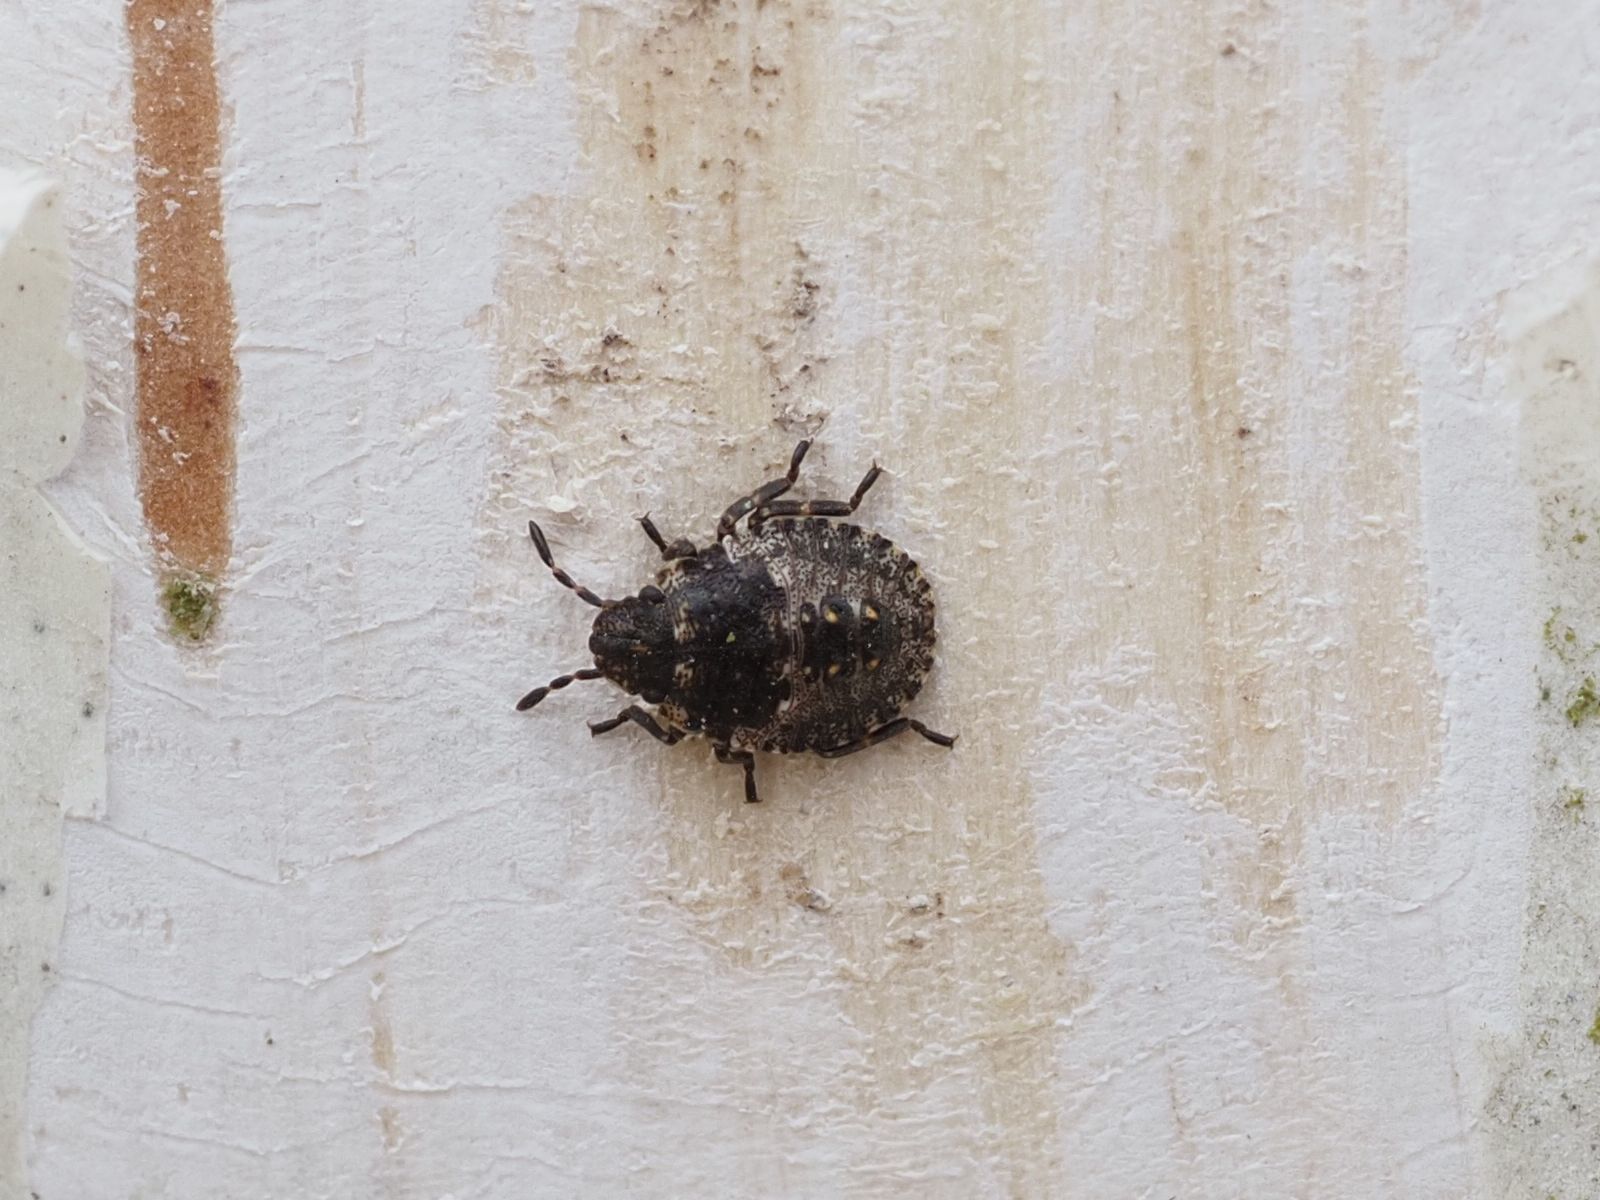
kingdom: Animalia
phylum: Arthropoda
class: Insecta
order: Hemiptera
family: Pentatomidae
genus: Pentatoma
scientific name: Pentatoma rufipes
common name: Forest bug
